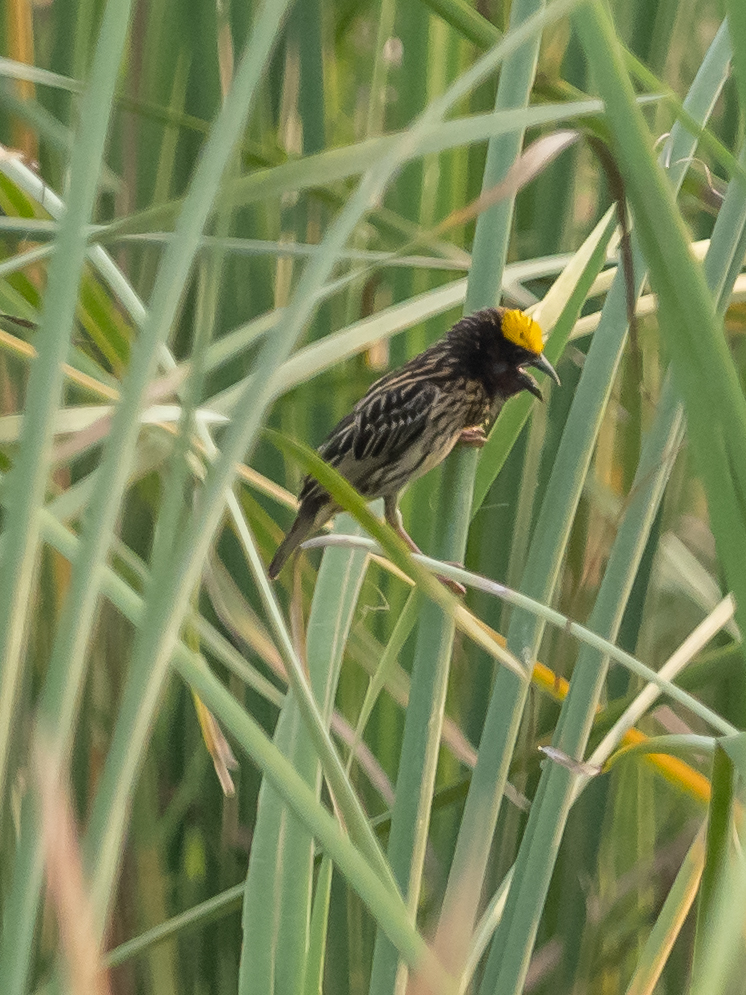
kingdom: Animalia
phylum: Chordata
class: Aves
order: Passeriformes
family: Ploceidae
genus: Ploceus
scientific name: Ploceus manyar
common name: Streaked weaver
